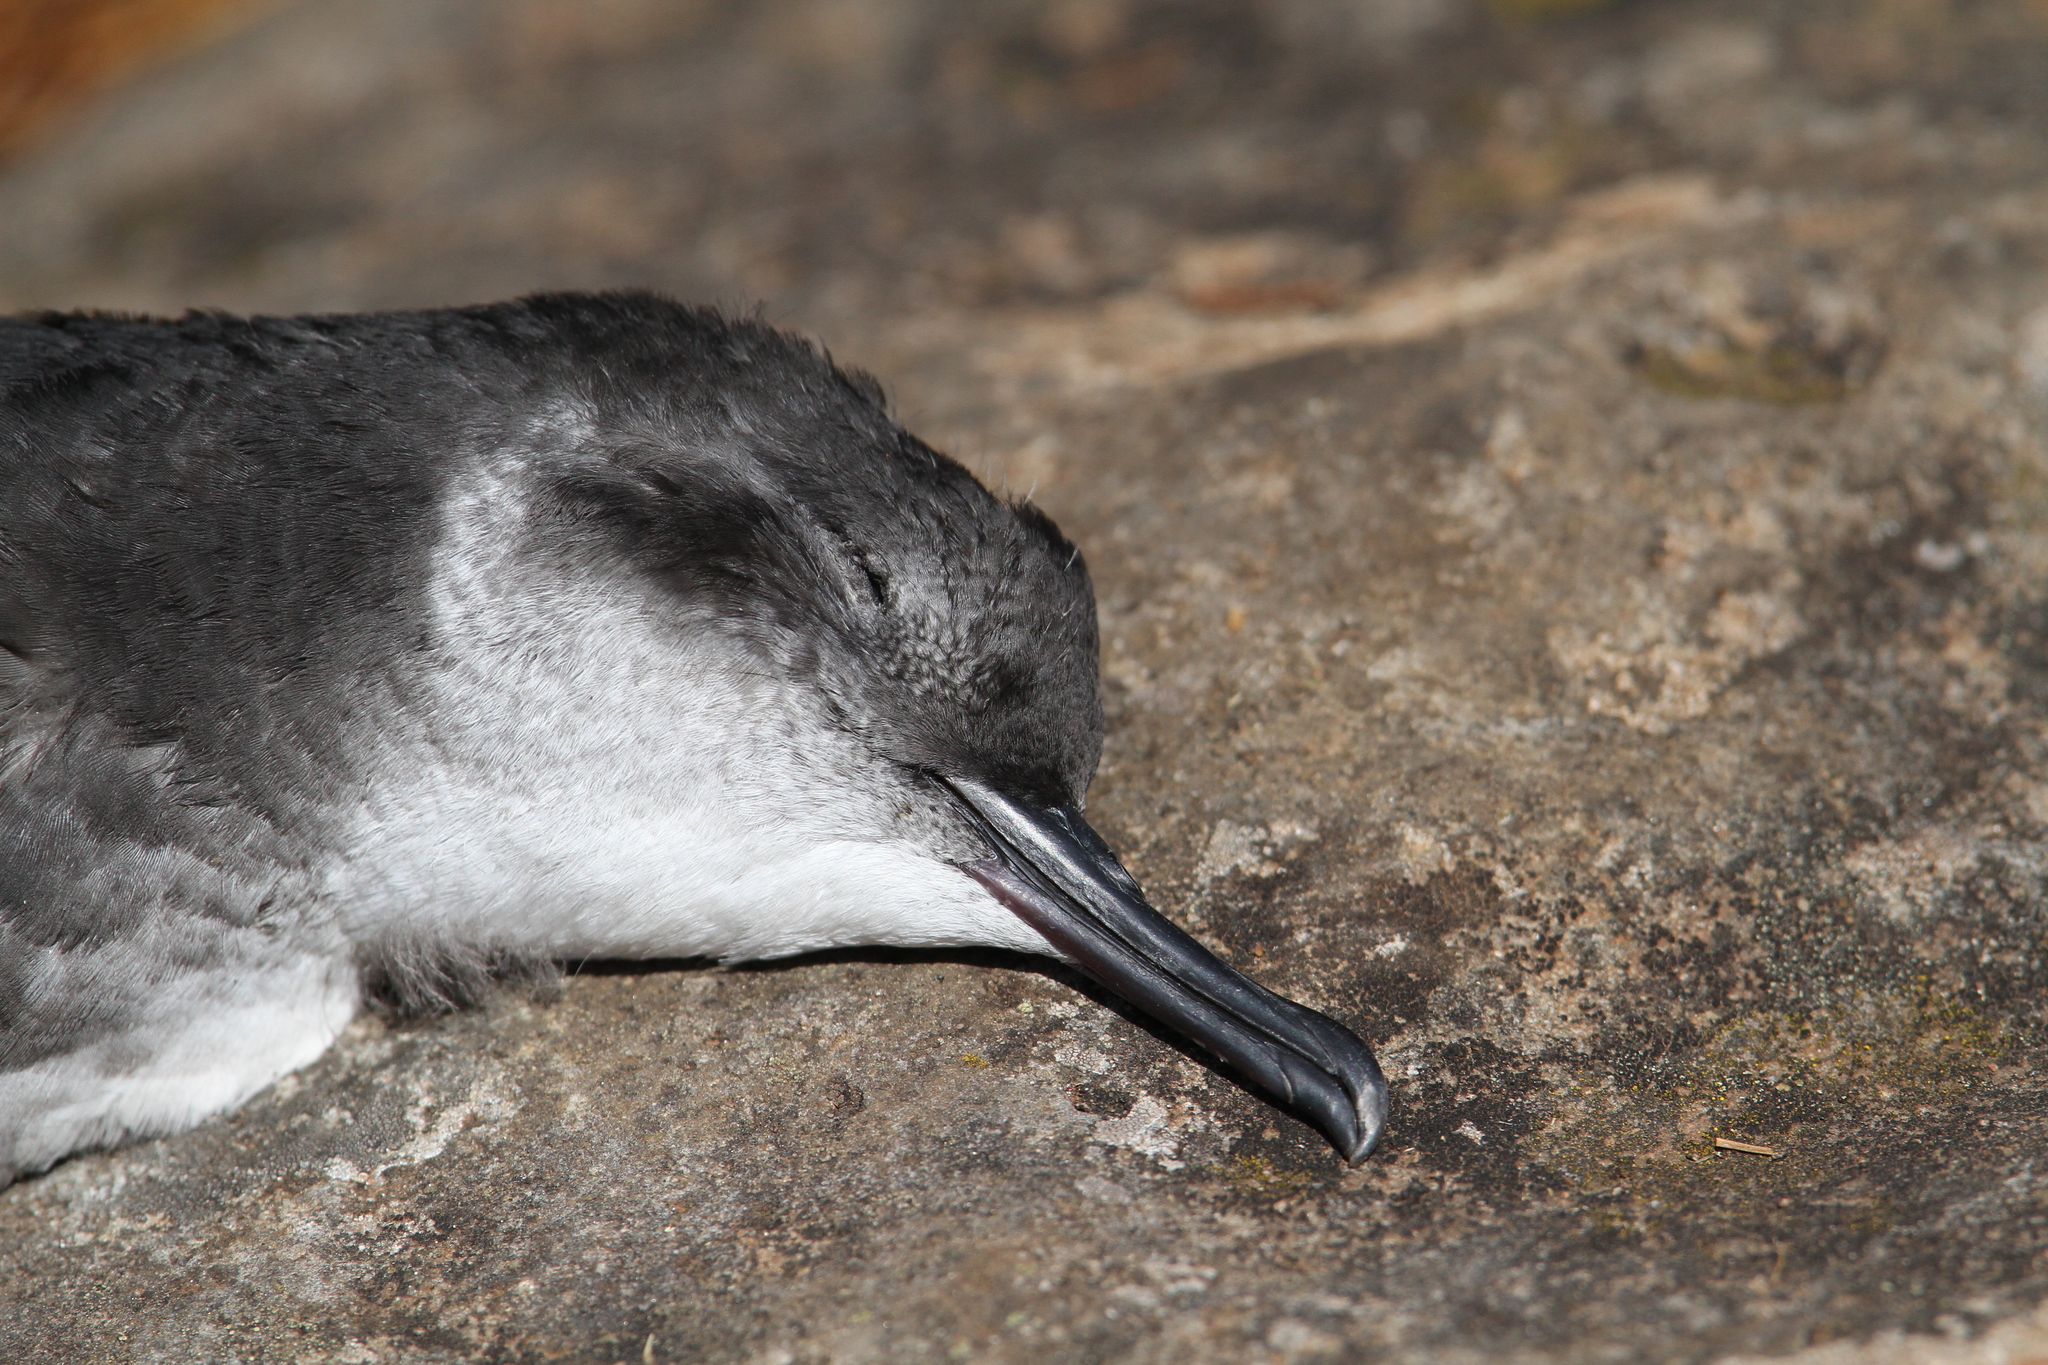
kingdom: Animalia
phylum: Chordata
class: Aves
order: Procellariiformes
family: Procellariidae
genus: Puffinus
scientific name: Puffinus puffinus
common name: Manx shearwater
